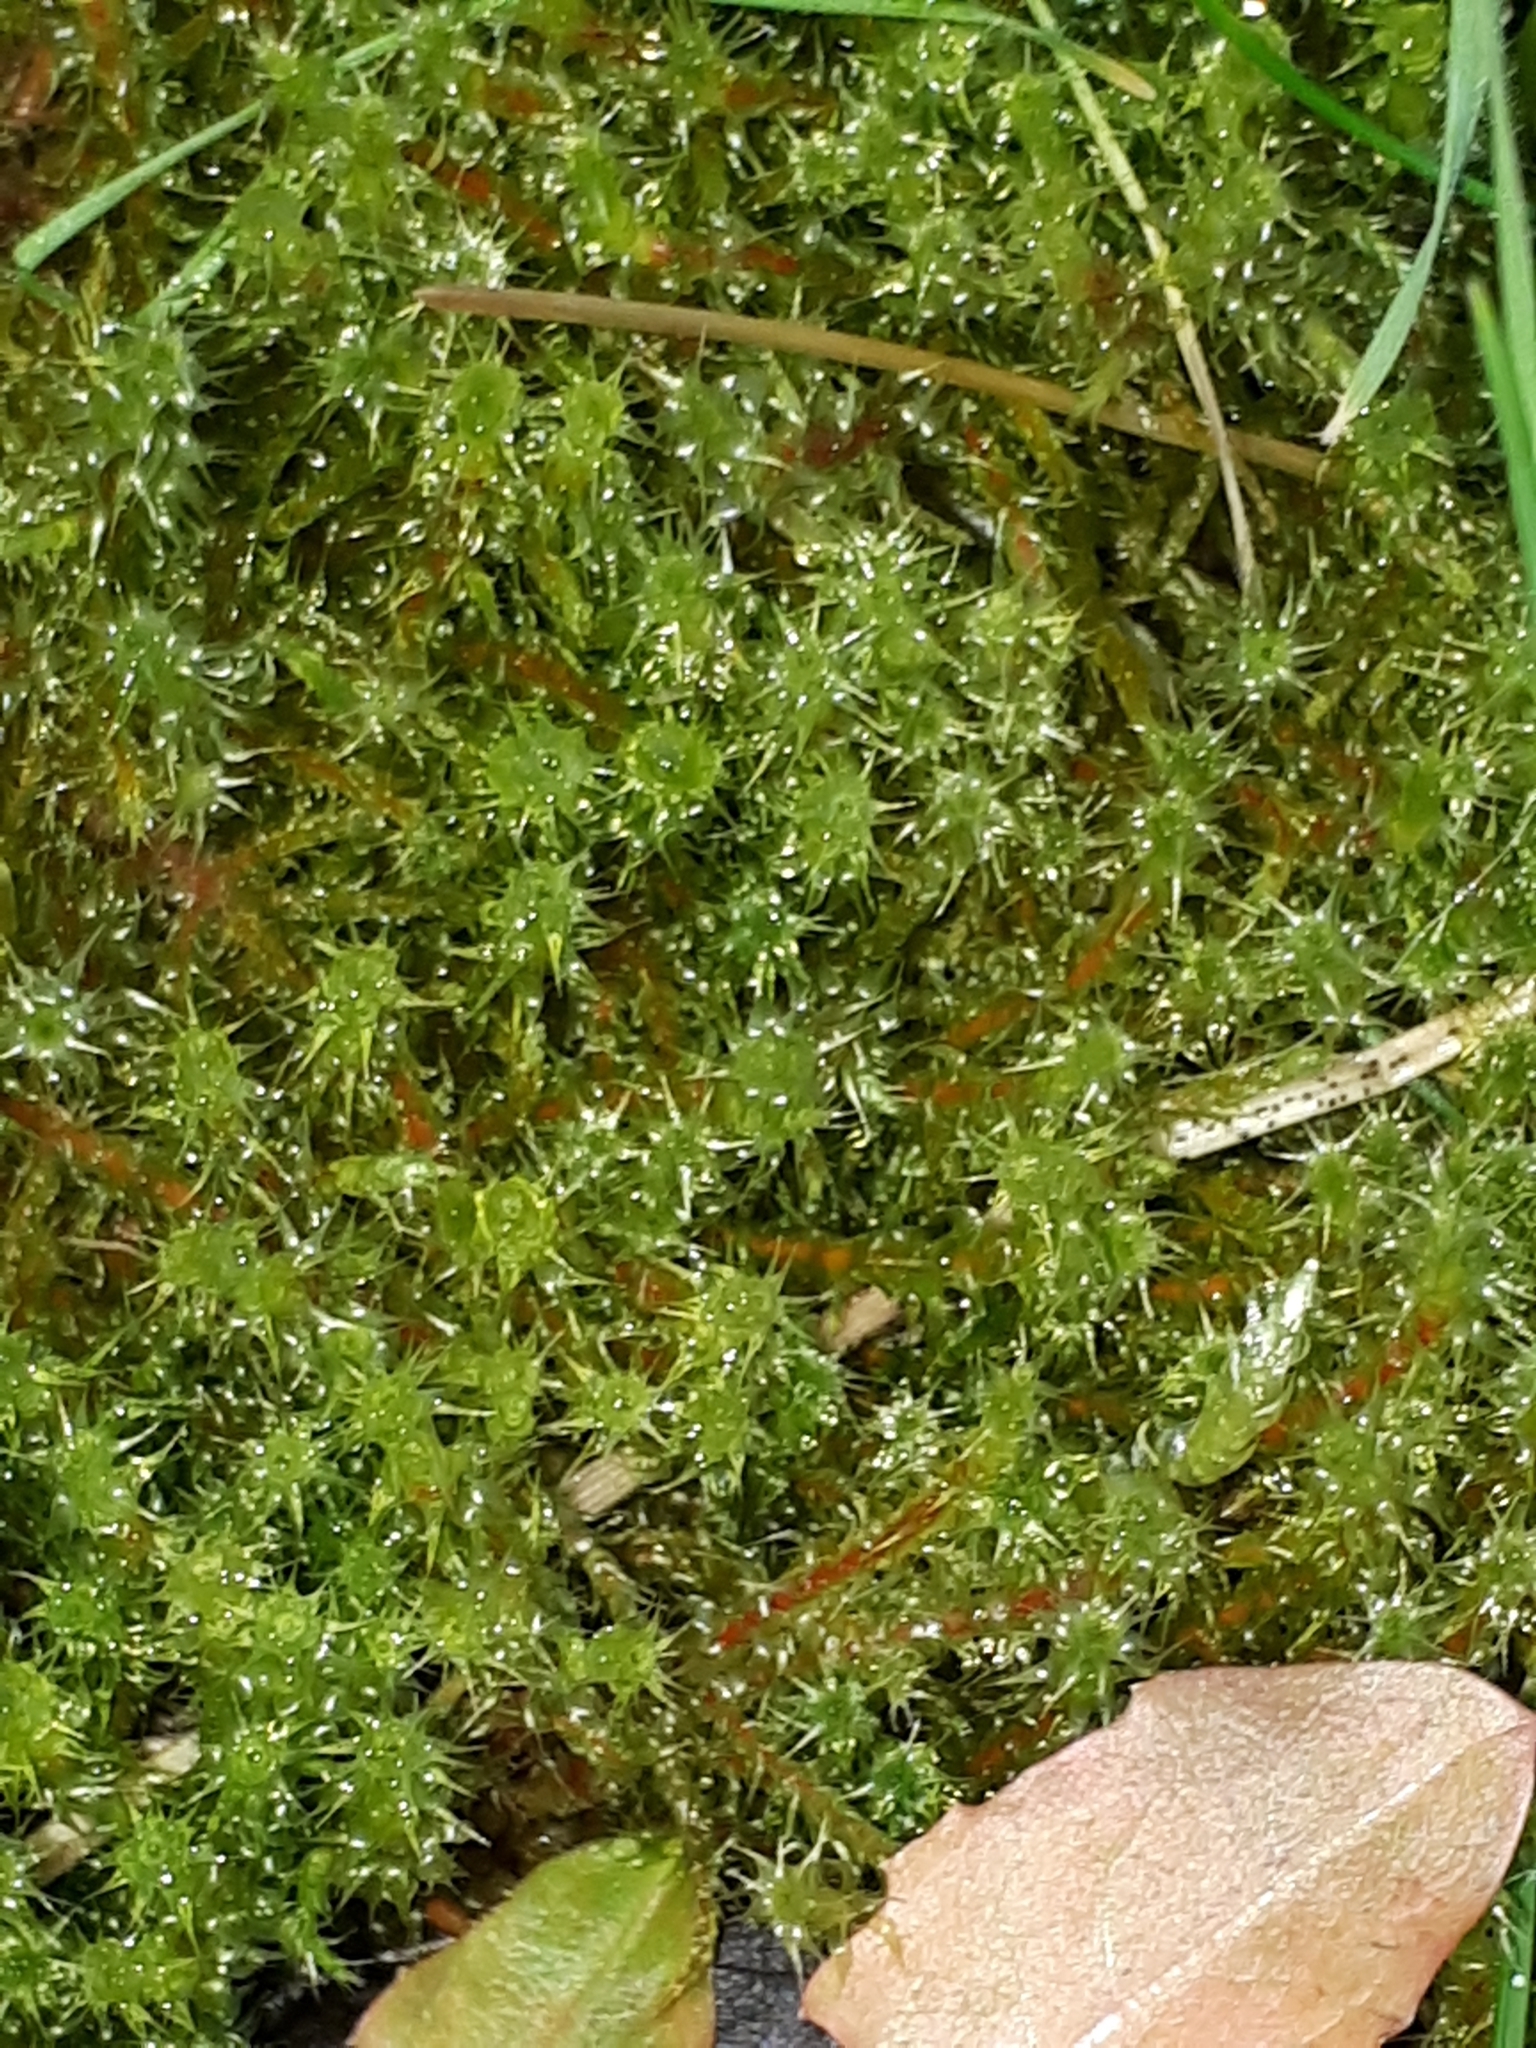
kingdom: Plantae
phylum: Bryophyta
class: Bryopsida
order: Hypnales
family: Hylocomiaceae
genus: Rhytidiadelphus
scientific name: Rhytidiadelphus squarrosus
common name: Springy turf-moss
